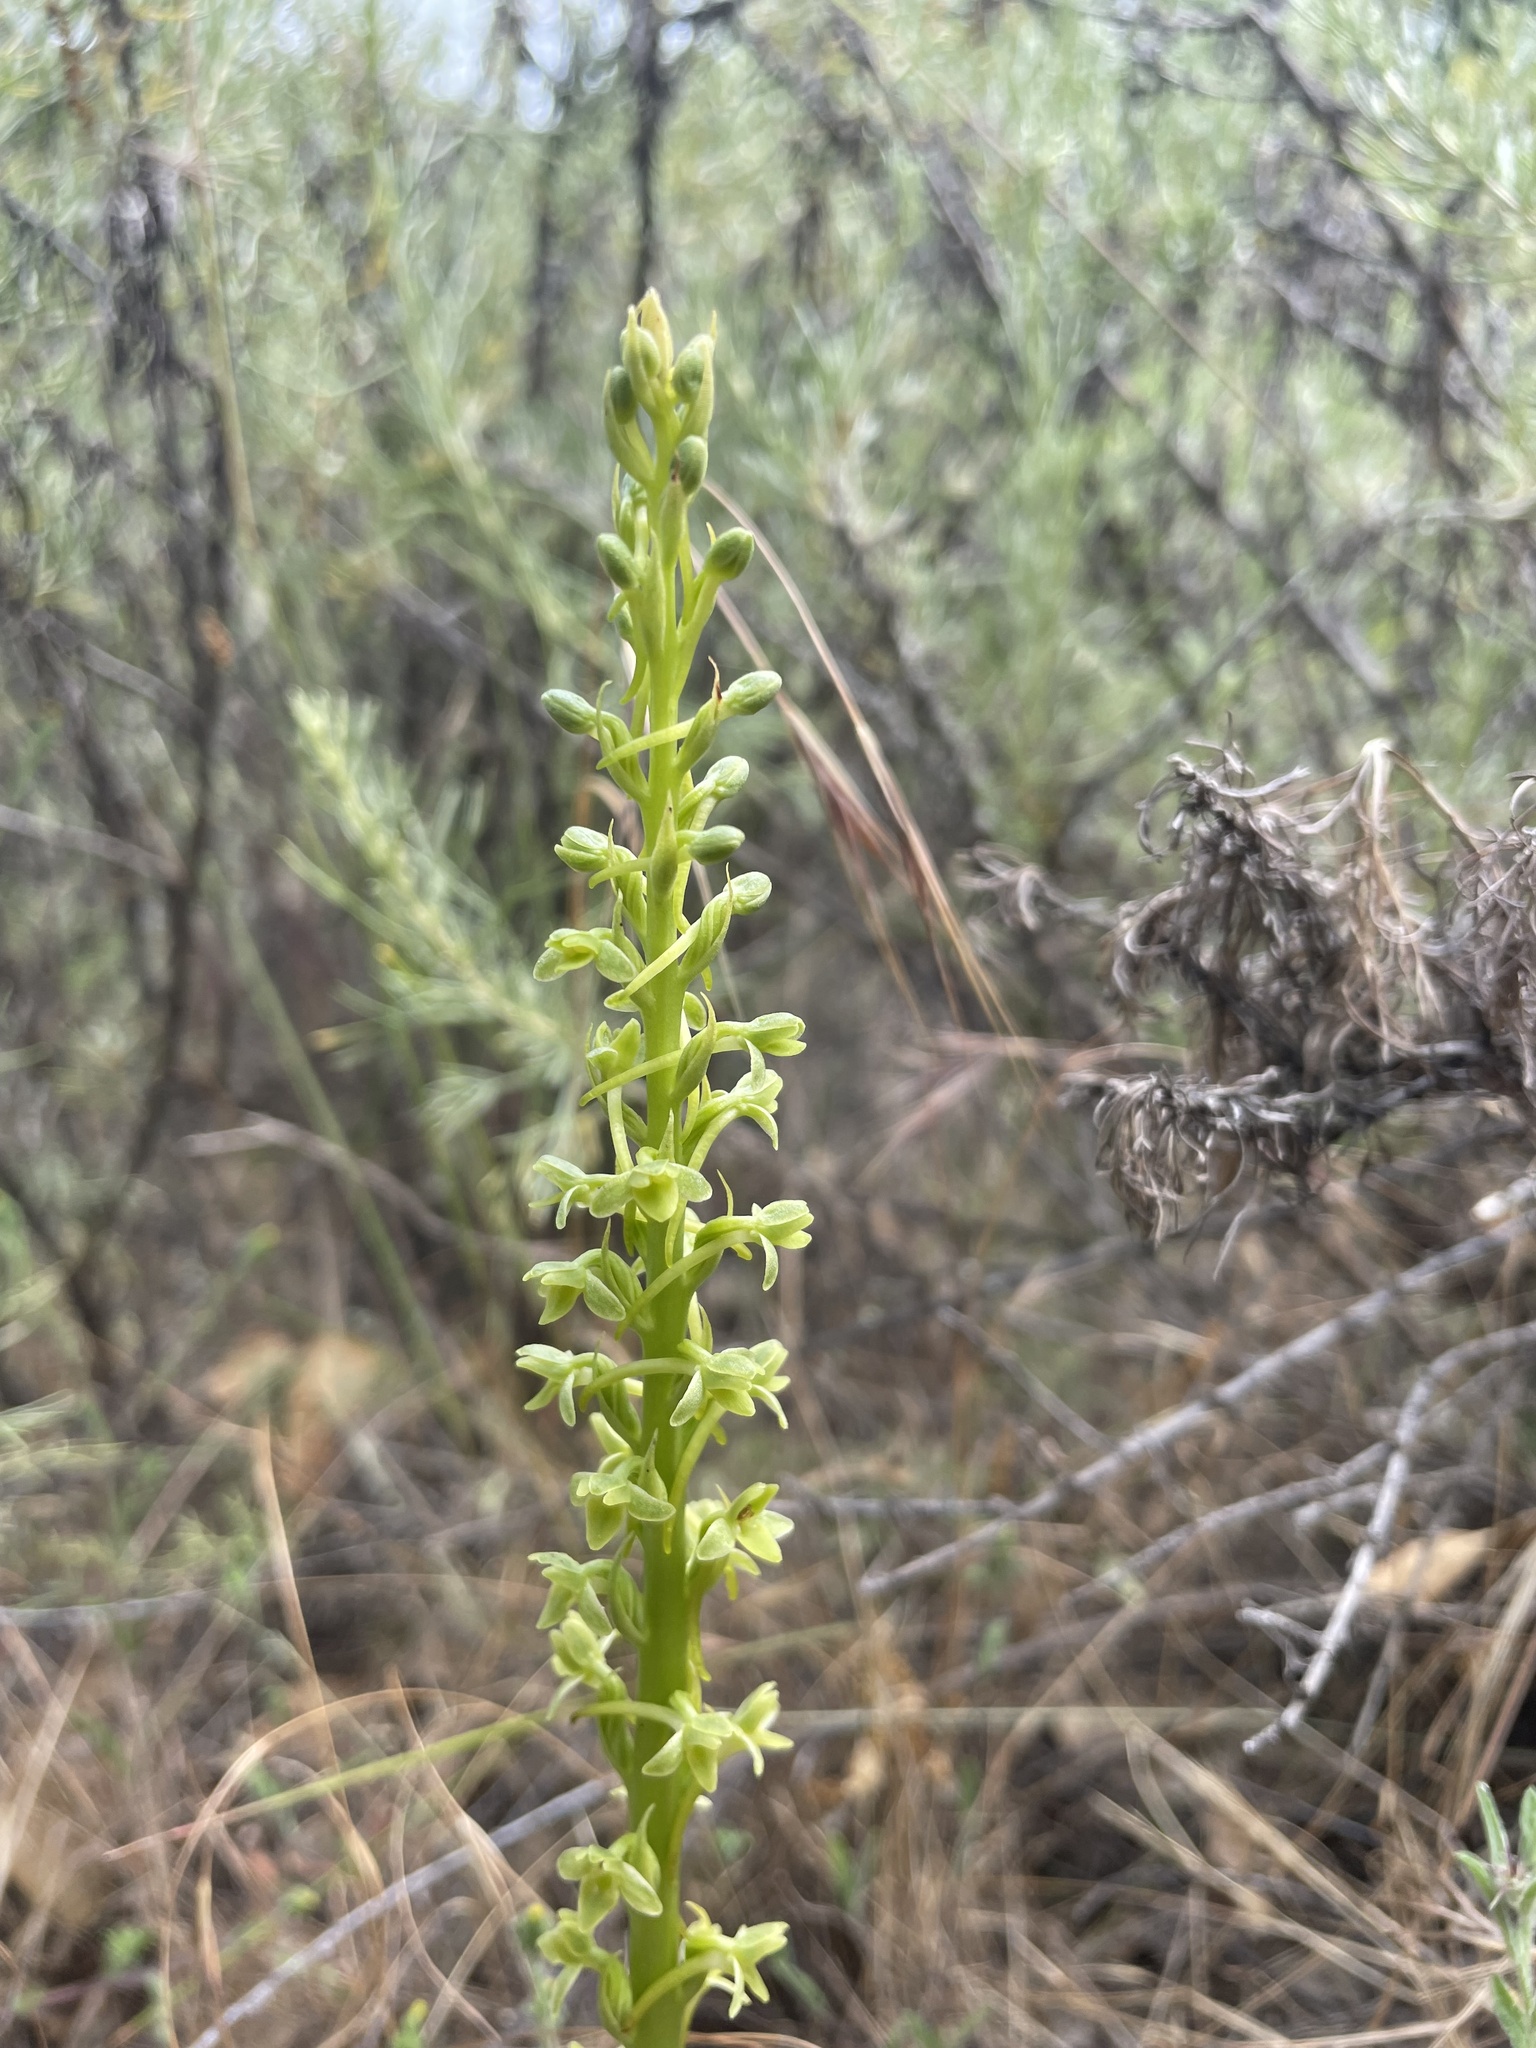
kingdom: Plantae
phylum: Tracheophyta
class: Liliopsida
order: Asparagales
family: Orchidaceae
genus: Platanthera
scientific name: Platanthera michaelii
